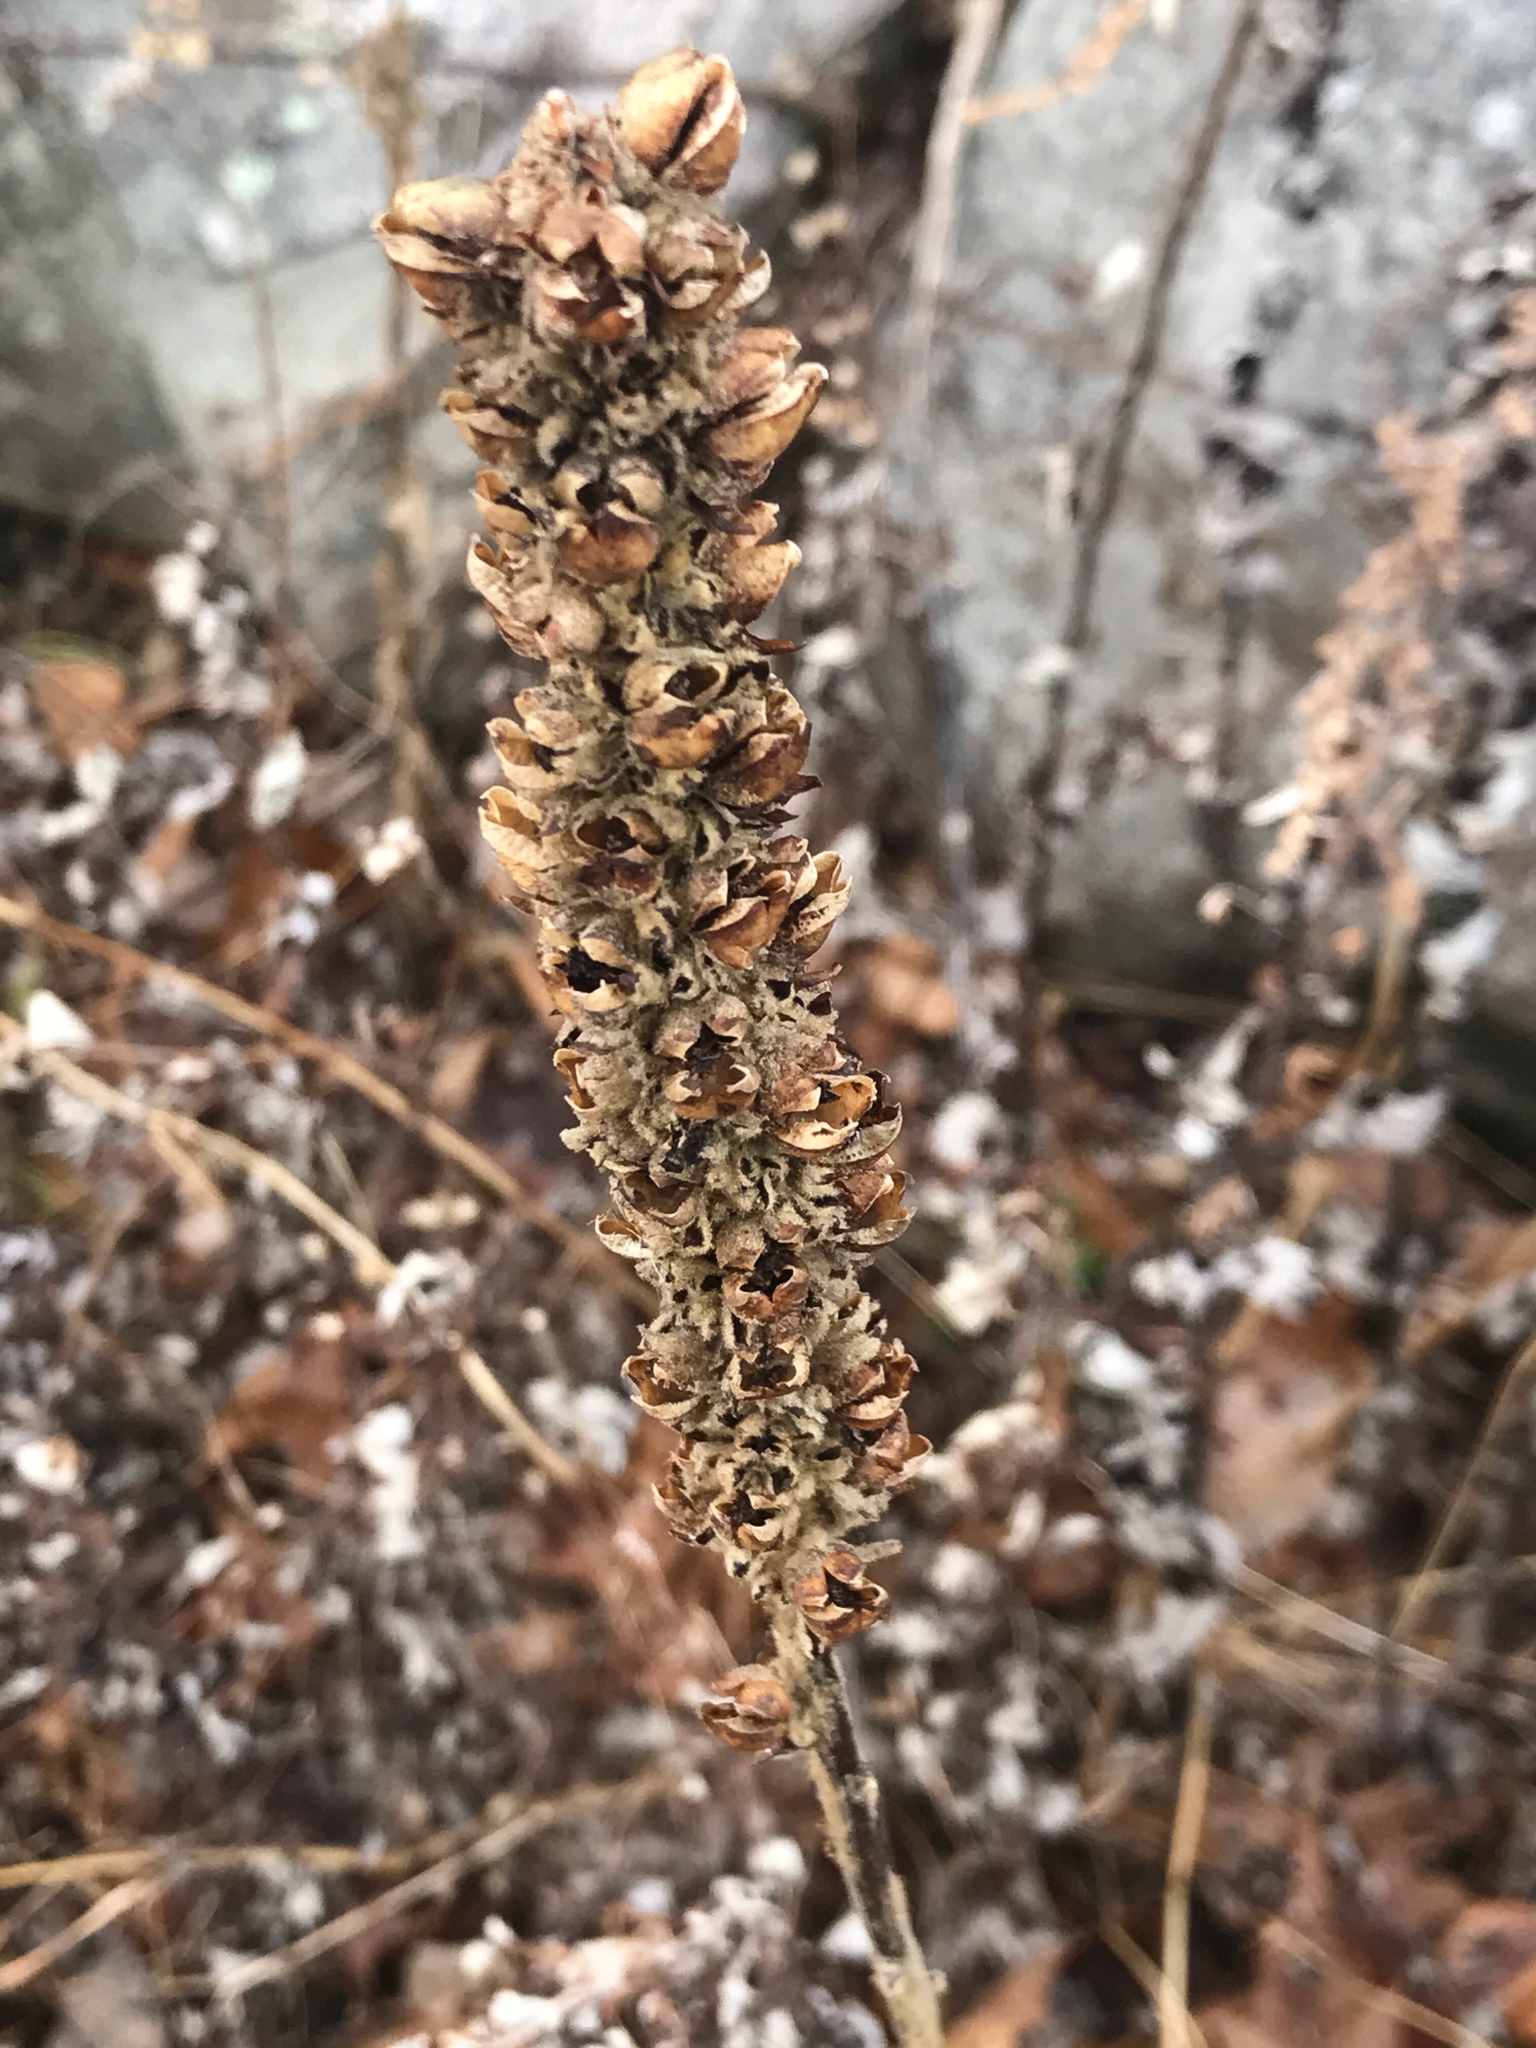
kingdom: Plantae
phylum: Tracheophyta
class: Magnoliopsida
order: Lamiales
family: Scrophulariaceae
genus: Verbascum
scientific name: Verbascum thapsus
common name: Common mullein
